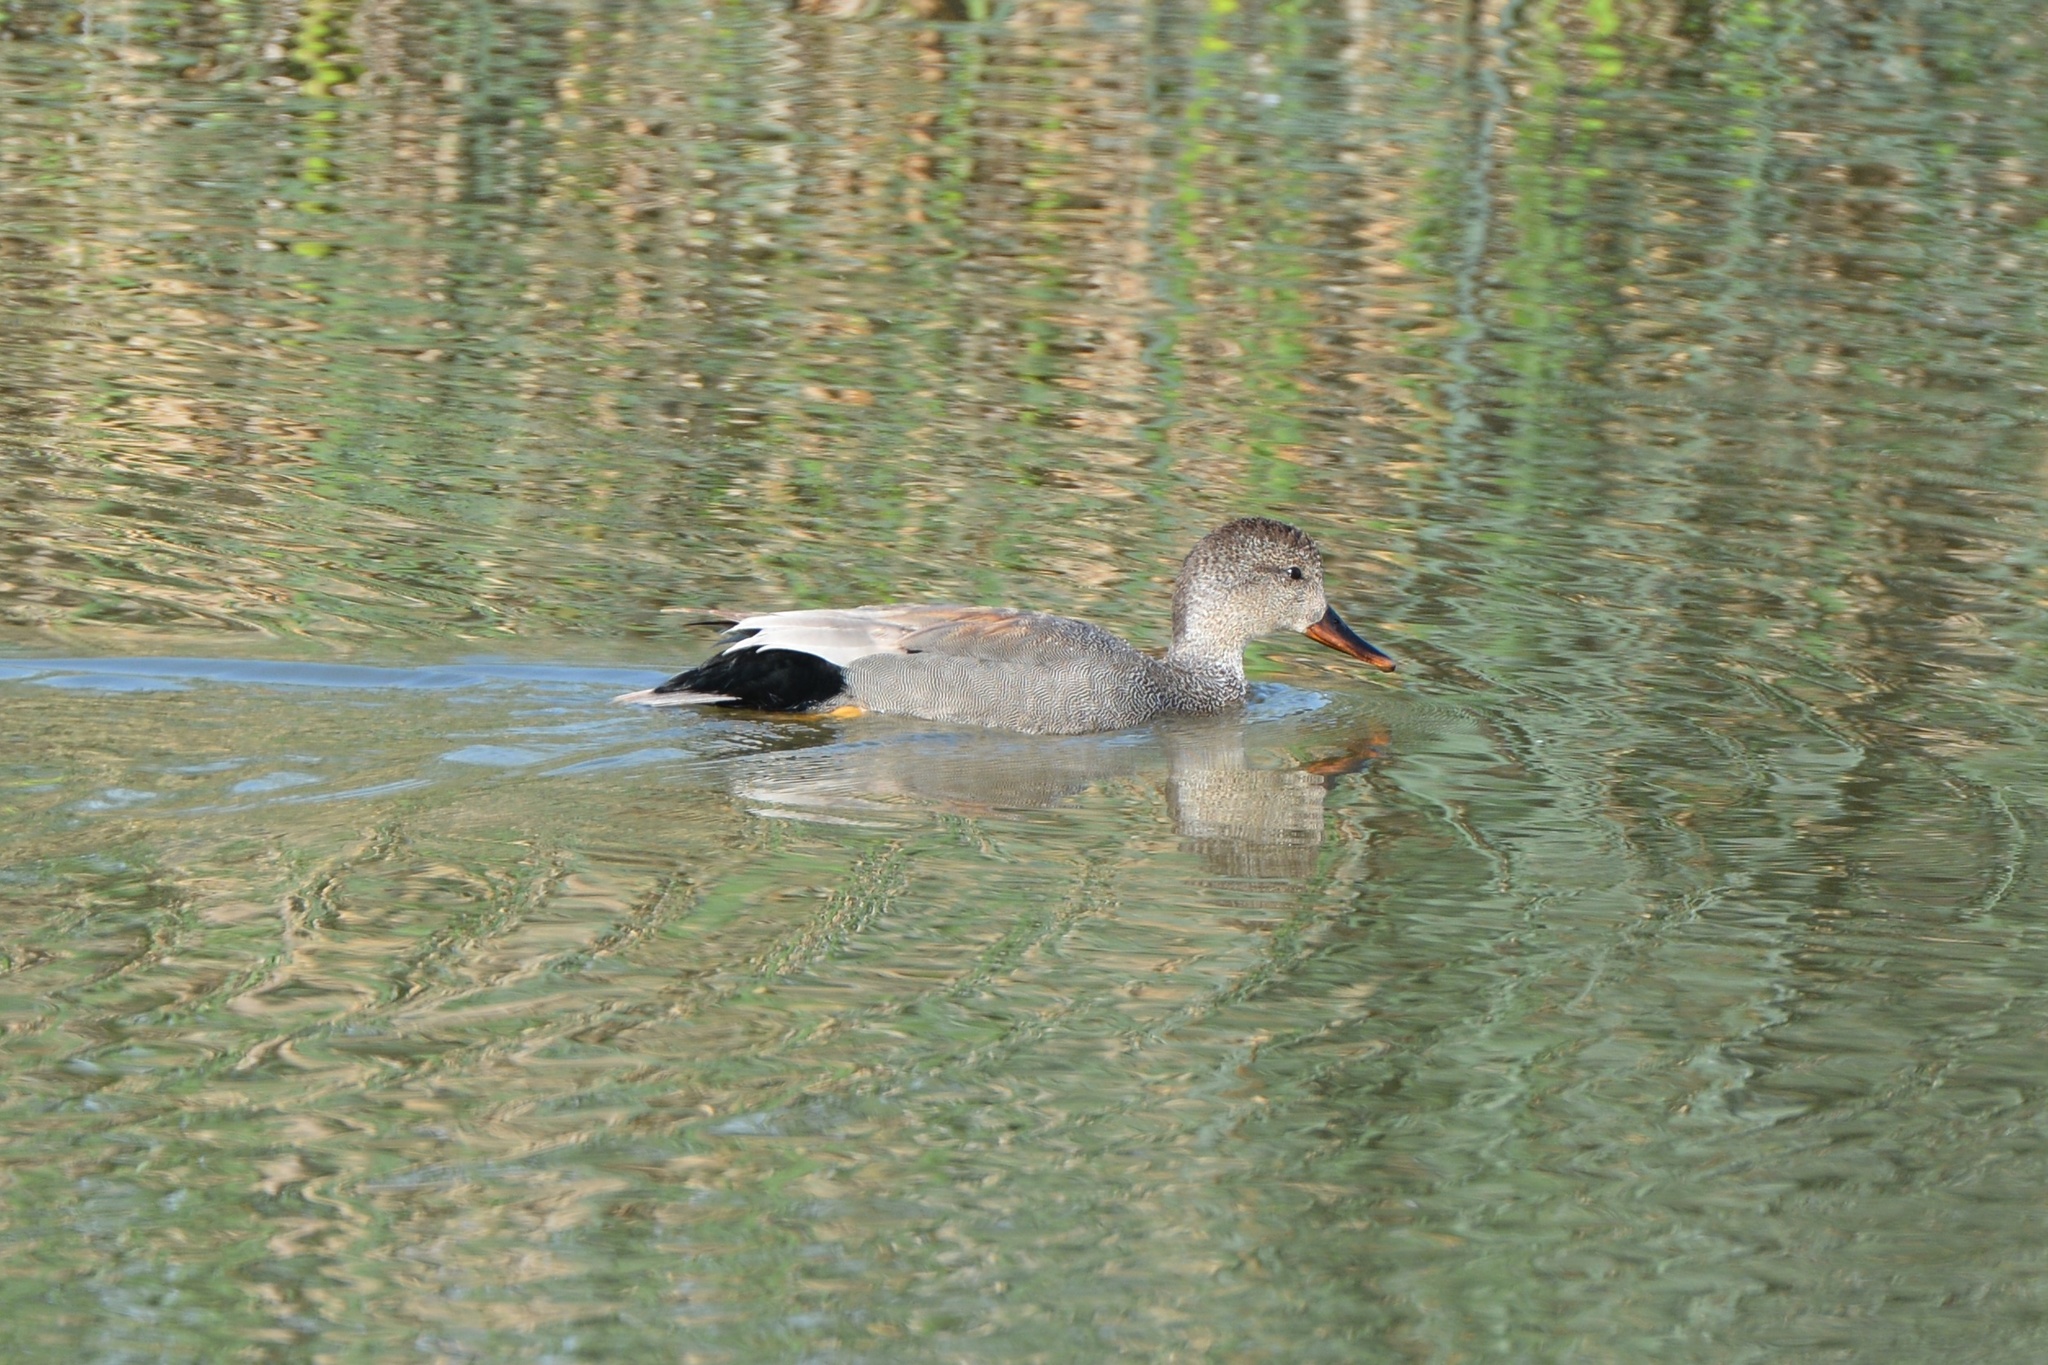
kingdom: Animalia
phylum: Chordata
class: Aves
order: Anseriformes
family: Anatidae
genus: Mareca
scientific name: Mareca strepera
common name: Gadwall
